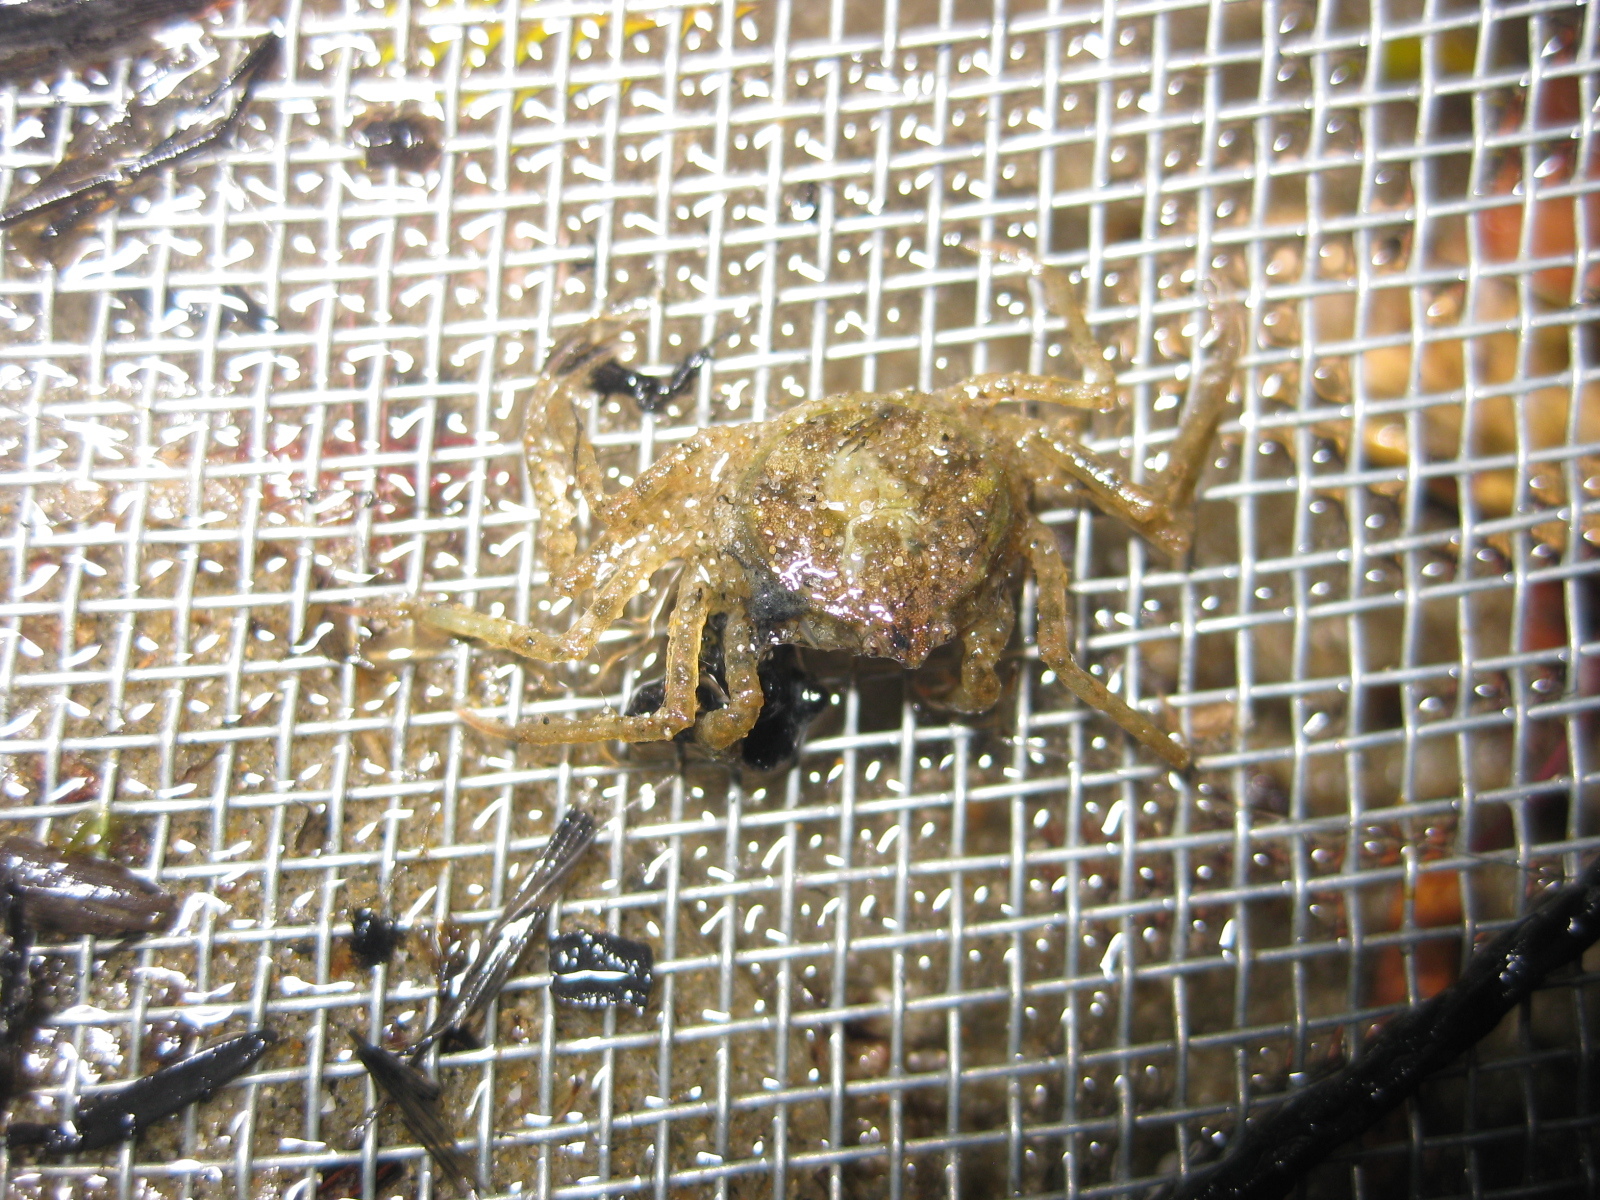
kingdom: Animalia
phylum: Arthropoda
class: Malacostraca
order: Decapoda
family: Hymenosomatidae
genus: Halicarcinus
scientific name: Halicarcinus whitei
